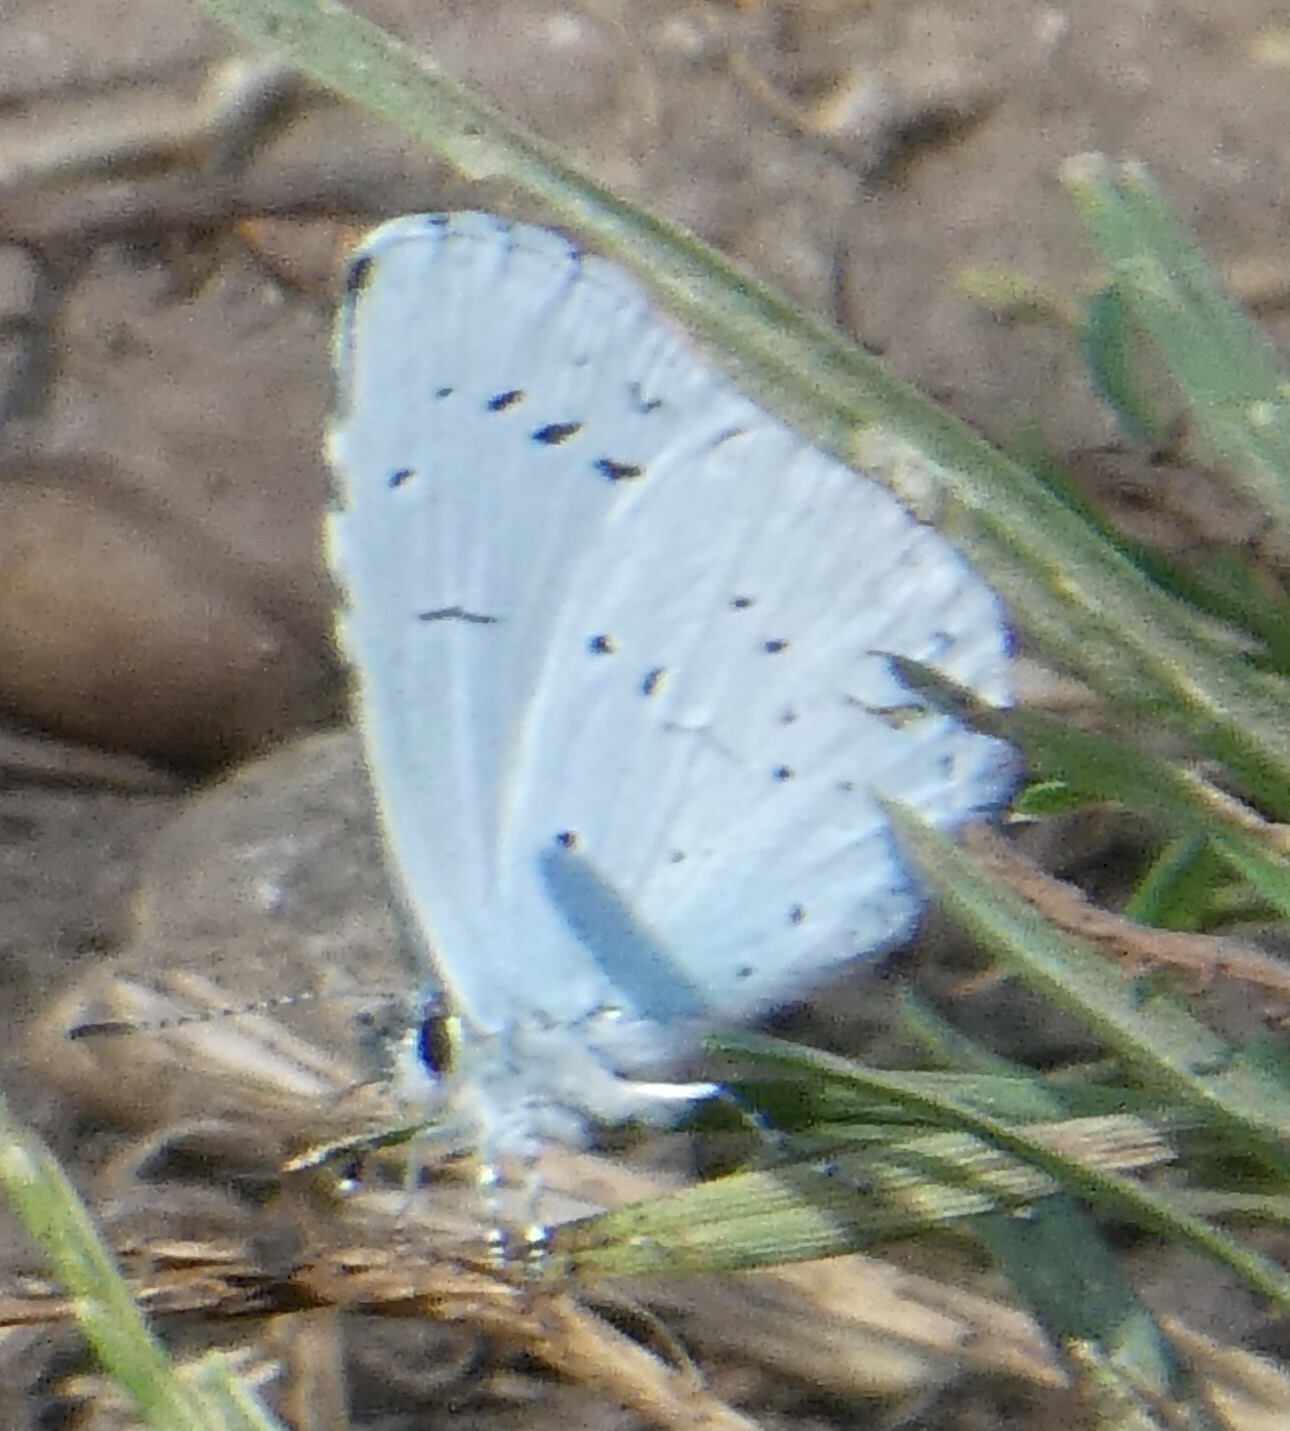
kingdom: Animalia
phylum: Arthropoda
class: Insecta
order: Lepidoptera
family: Lycaenidae
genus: Celastrina
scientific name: Celastrina argiolus
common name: Holly blue
